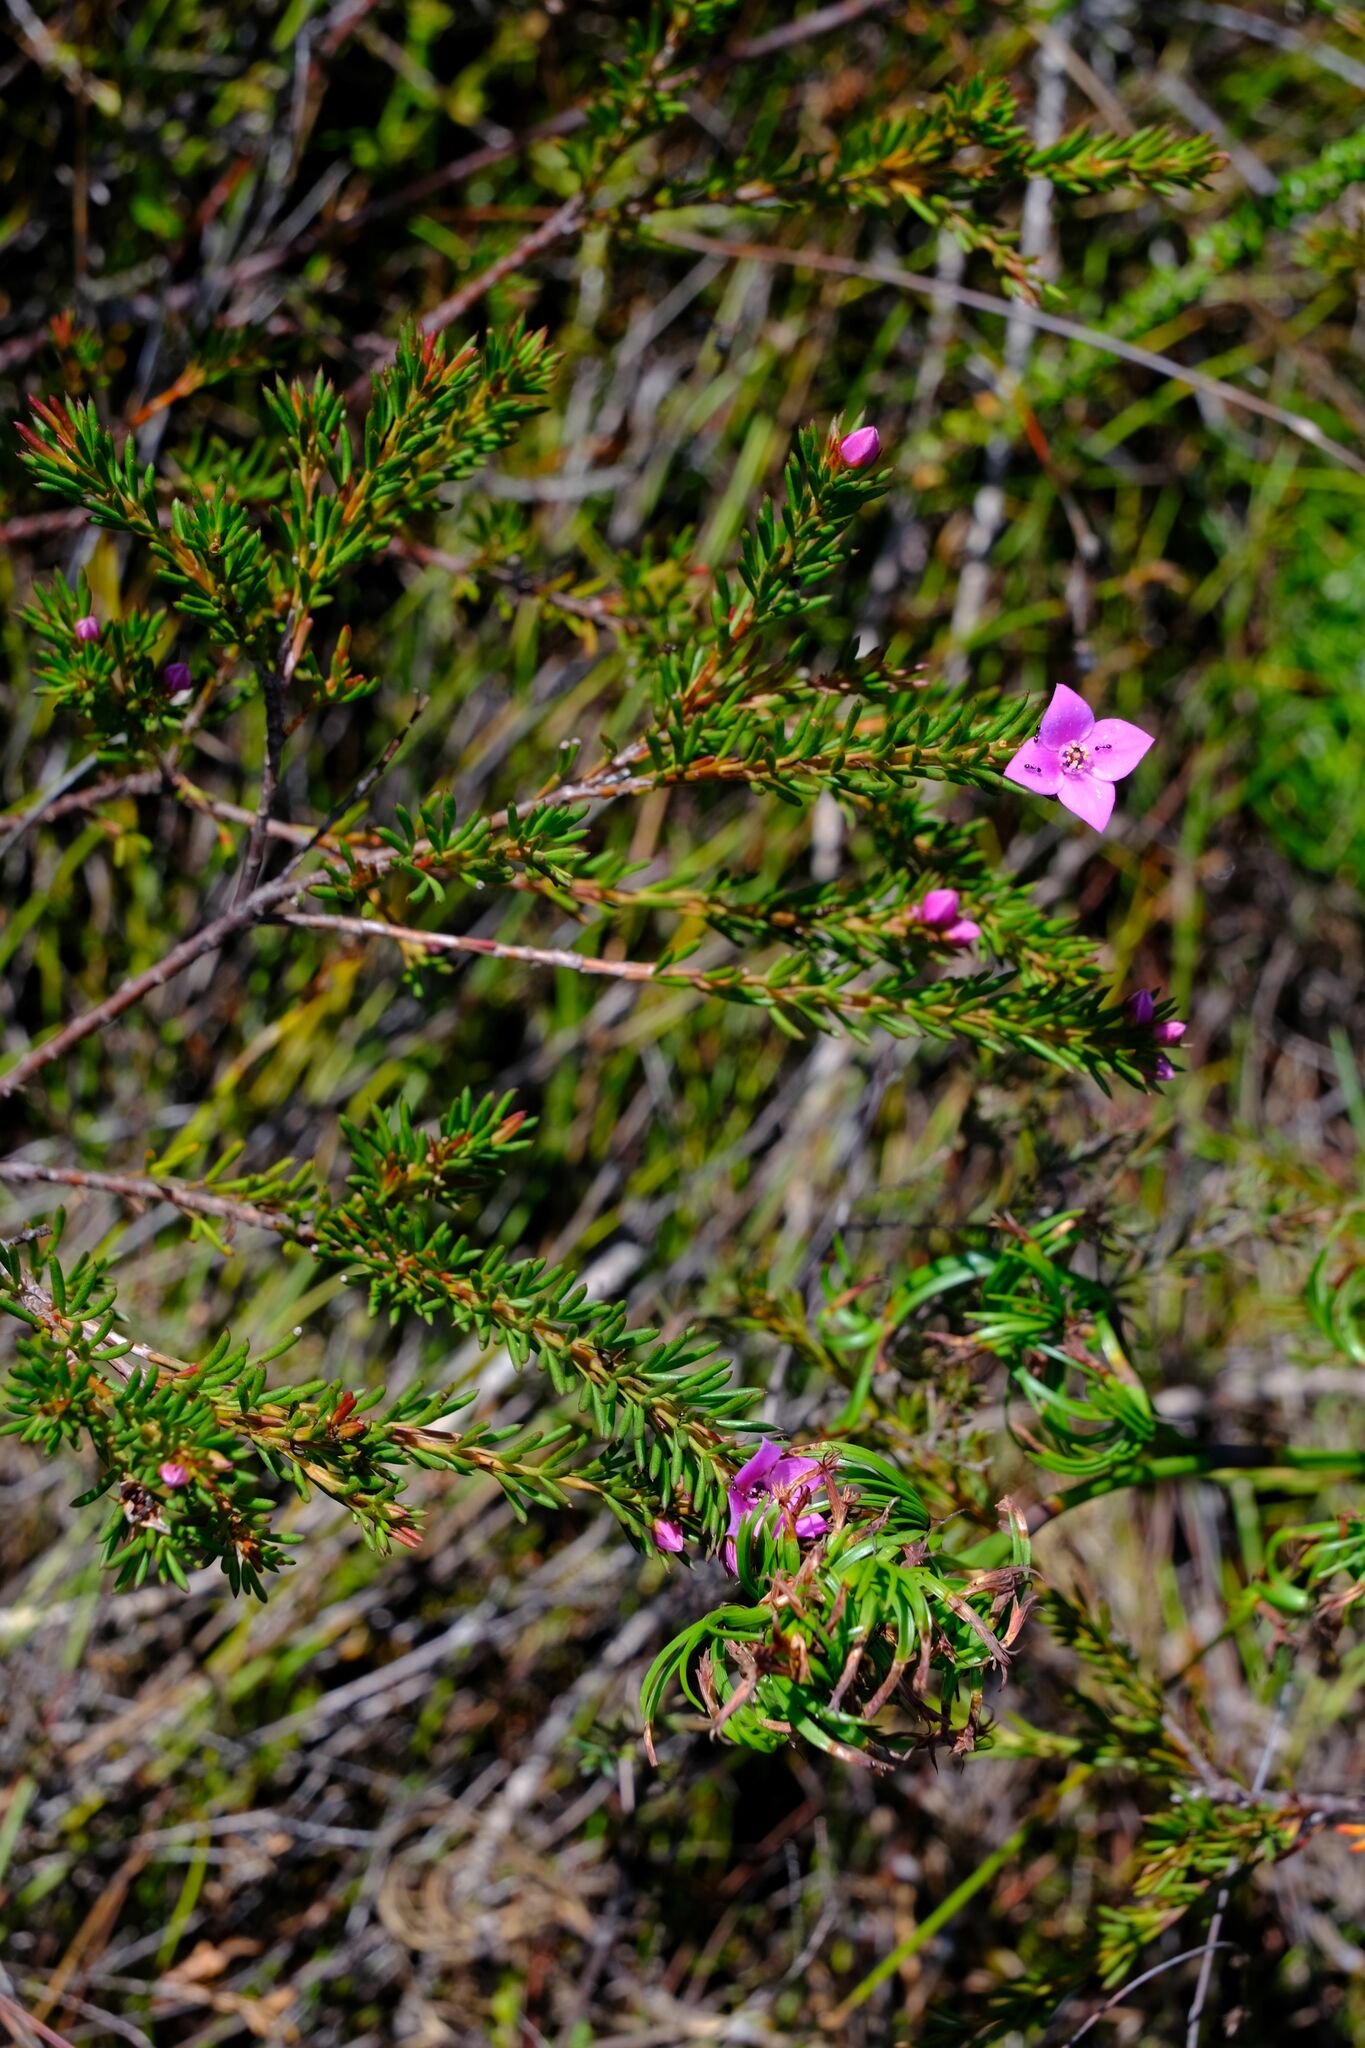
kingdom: Plantae
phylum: Tracheophyta
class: Magnoliopsida
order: Sapindales
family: Rutaceae
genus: Boronia
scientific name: Boronia falcifolia
